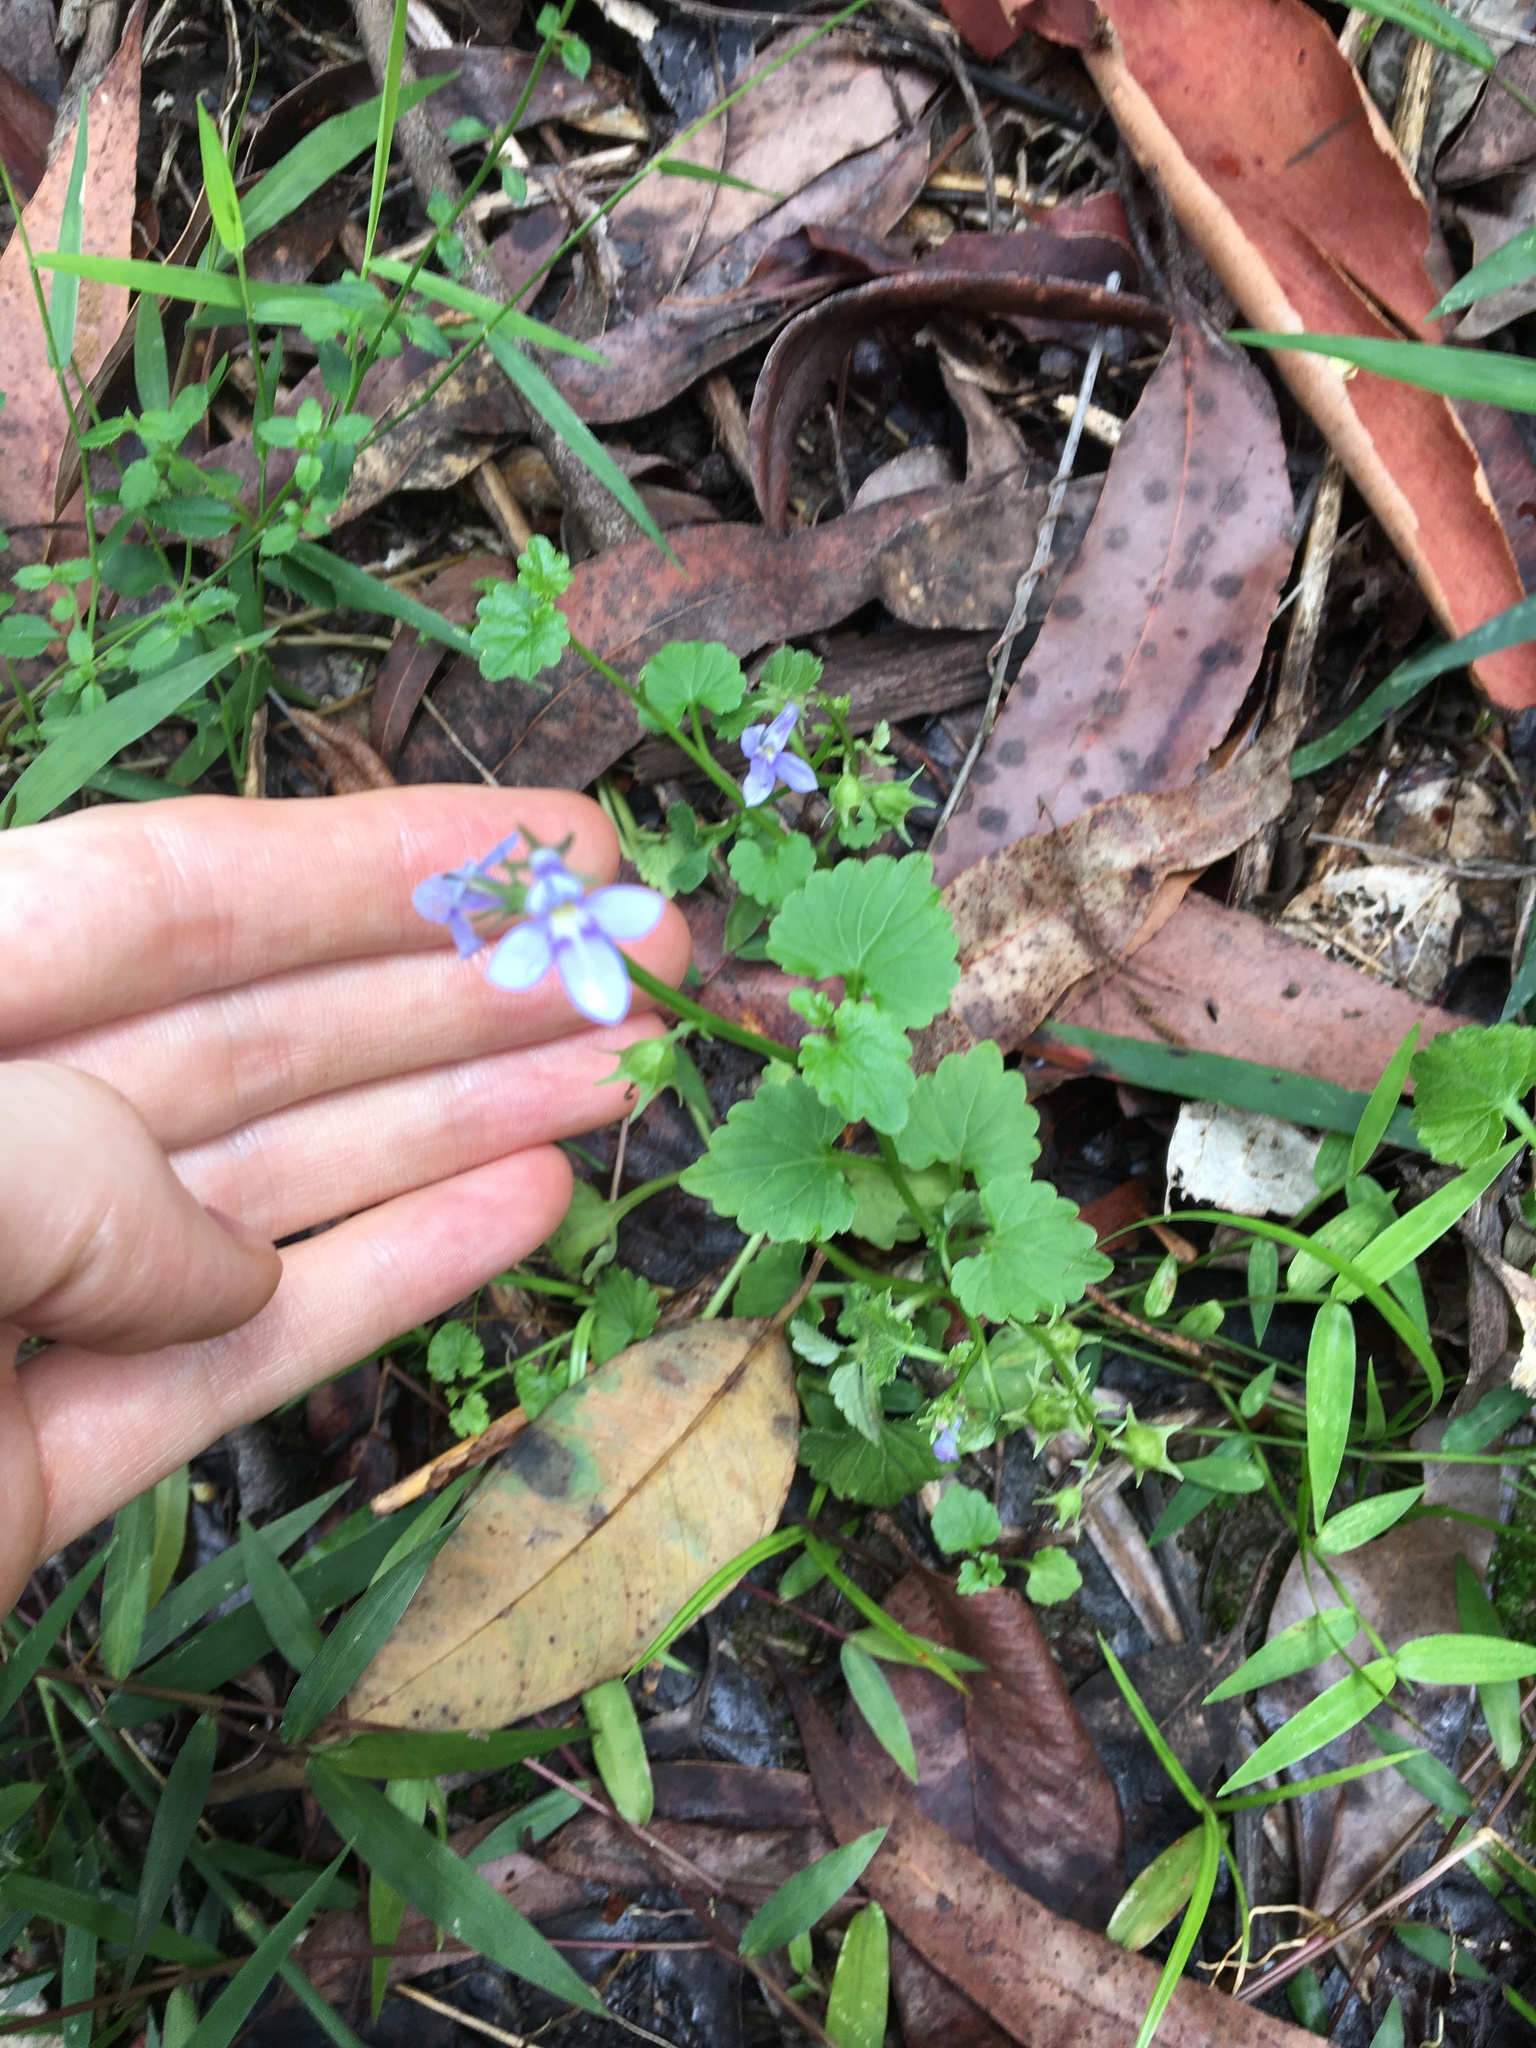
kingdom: Plantae
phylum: Tracheophyta
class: Magnoliopsida
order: Asterales
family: Campanulaceae
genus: Lobelia
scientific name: Lobelia trigonocaulis
